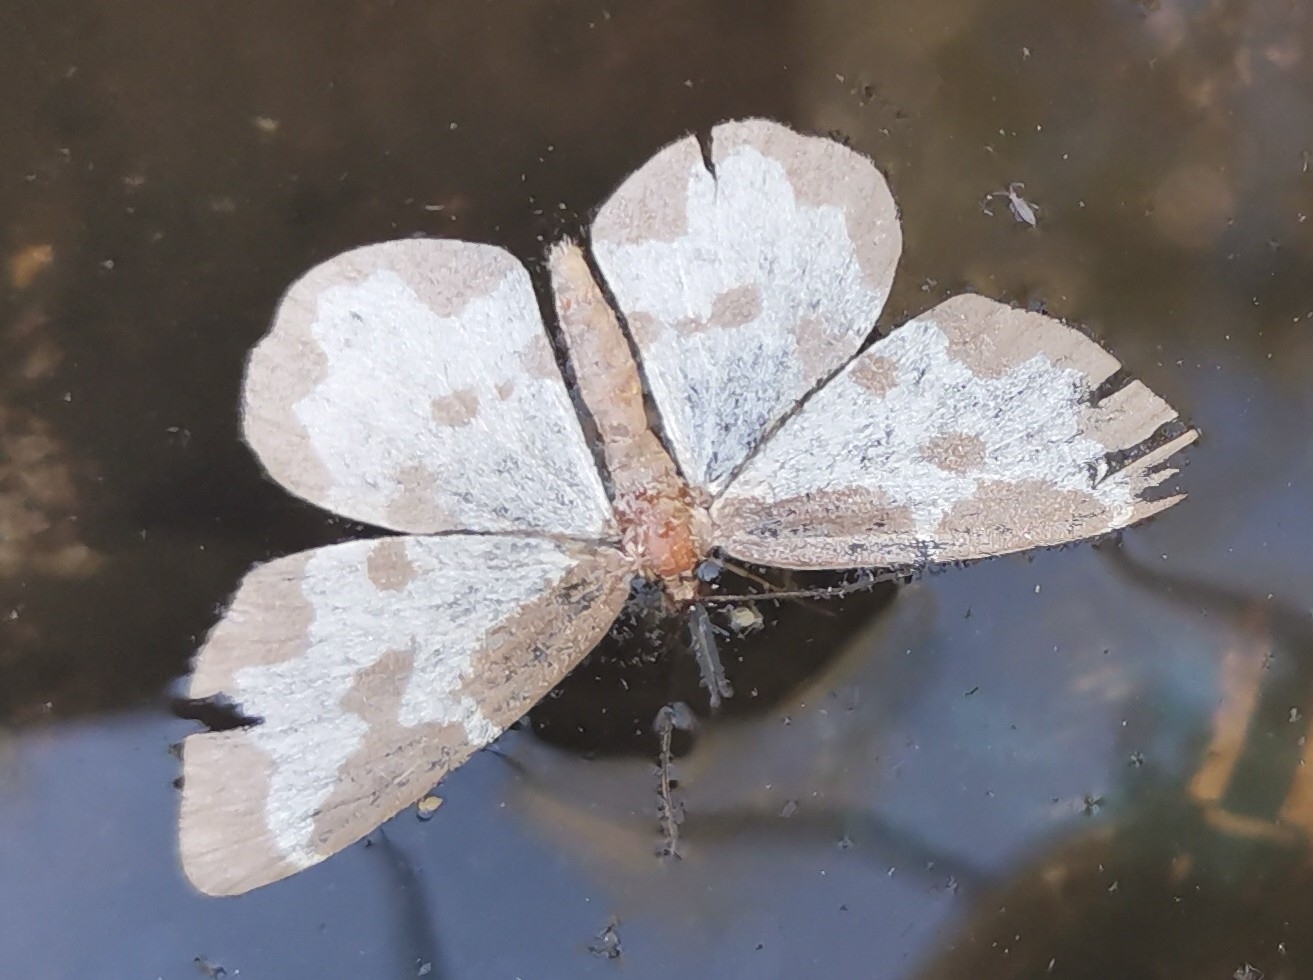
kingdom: Animalia
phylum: Arthropoda
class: Insecta
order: Lepidoptera
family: Geometridae
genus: Lomaspilis
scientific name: Lomaspilis marginata
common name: Clouded border
